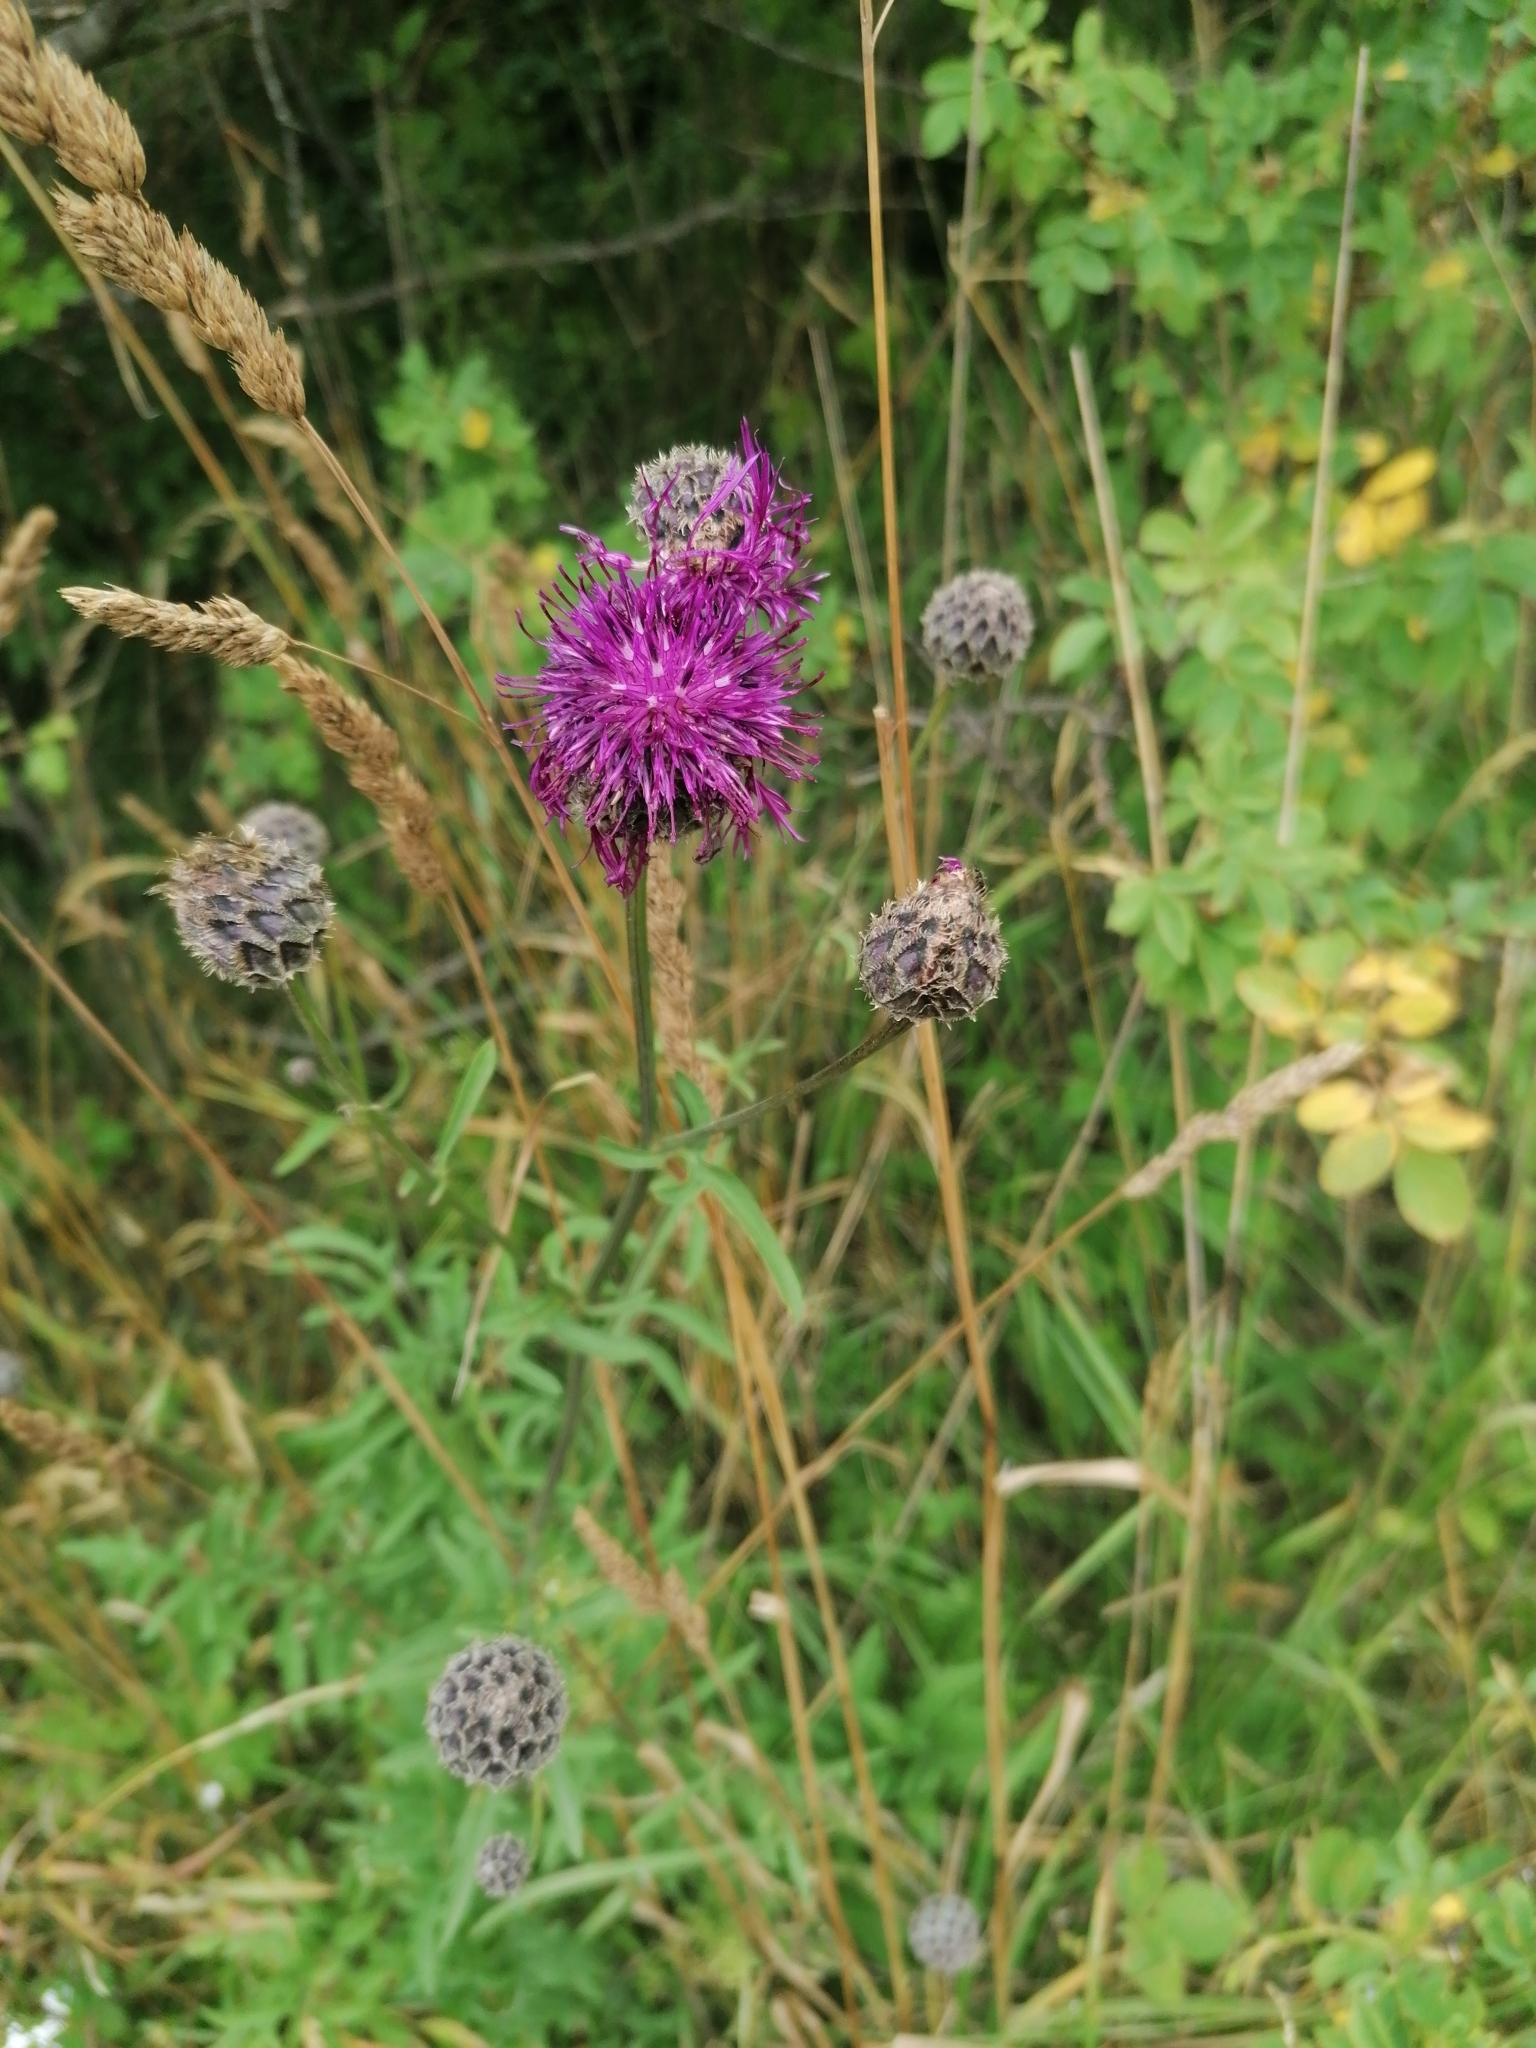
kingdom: Plantae
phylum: Tracheophyta
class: Magnoliopsida
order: Asterales
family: Asteraceae
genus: Centaurea
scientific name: Centaurea scabiosa
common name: Greater knapweed
